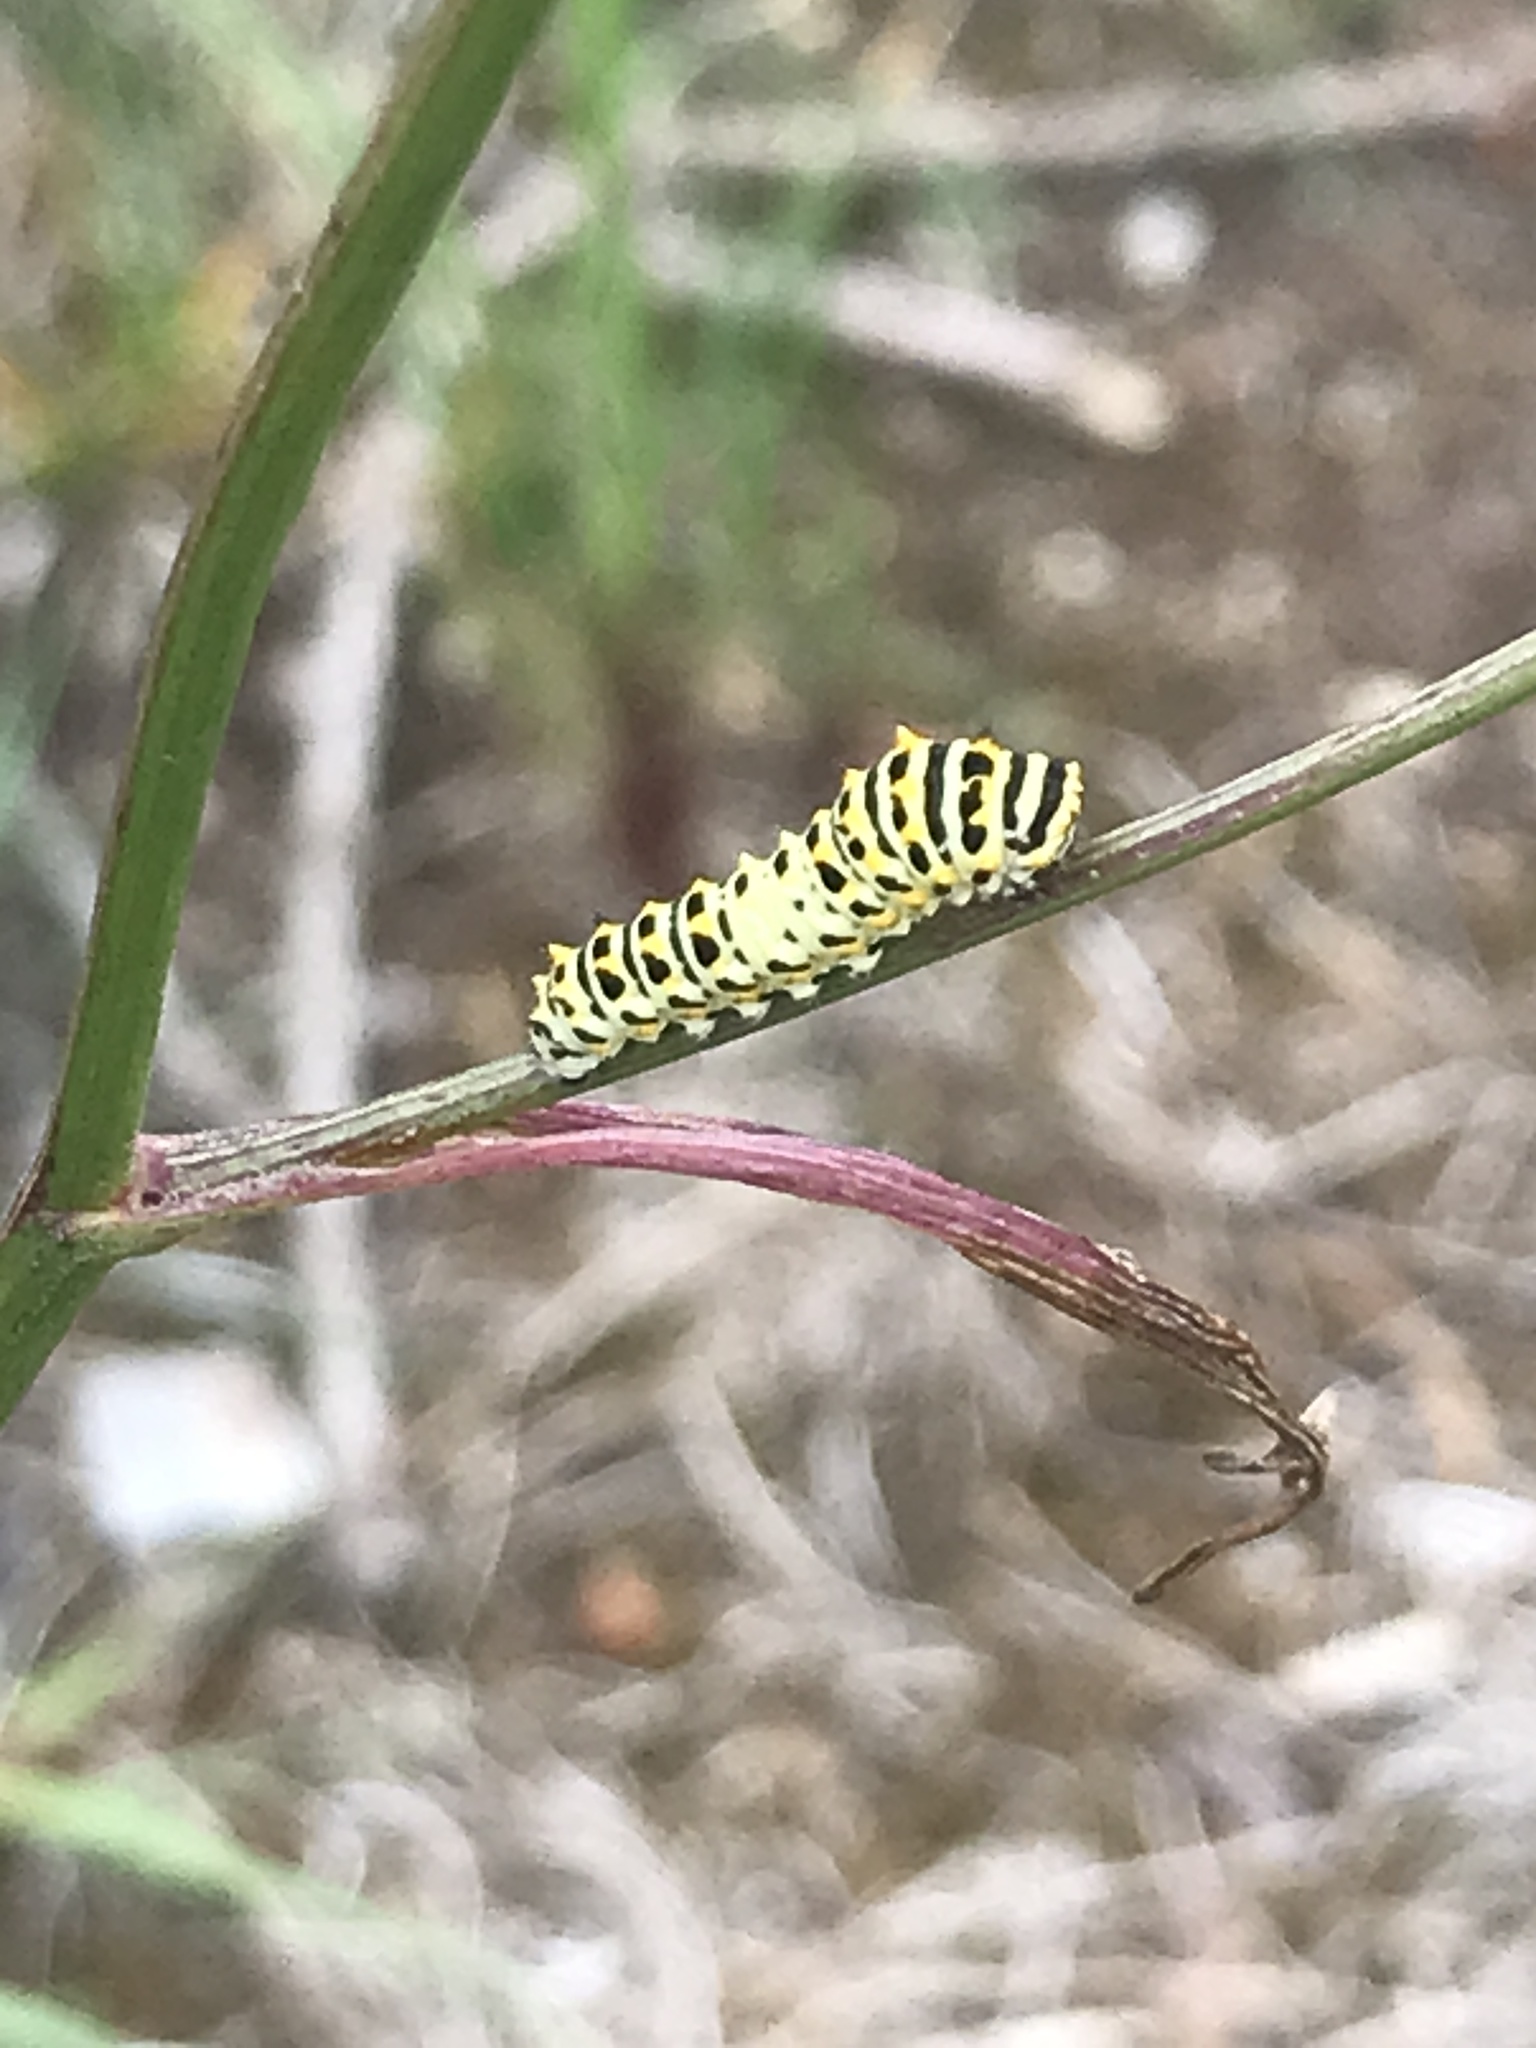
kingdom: Animalia
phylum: Arthropoda
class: Insecta
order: Lepidoptera
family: Papilionidae
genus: Papilio
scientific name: Papilio machaon
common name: Swallowtail
